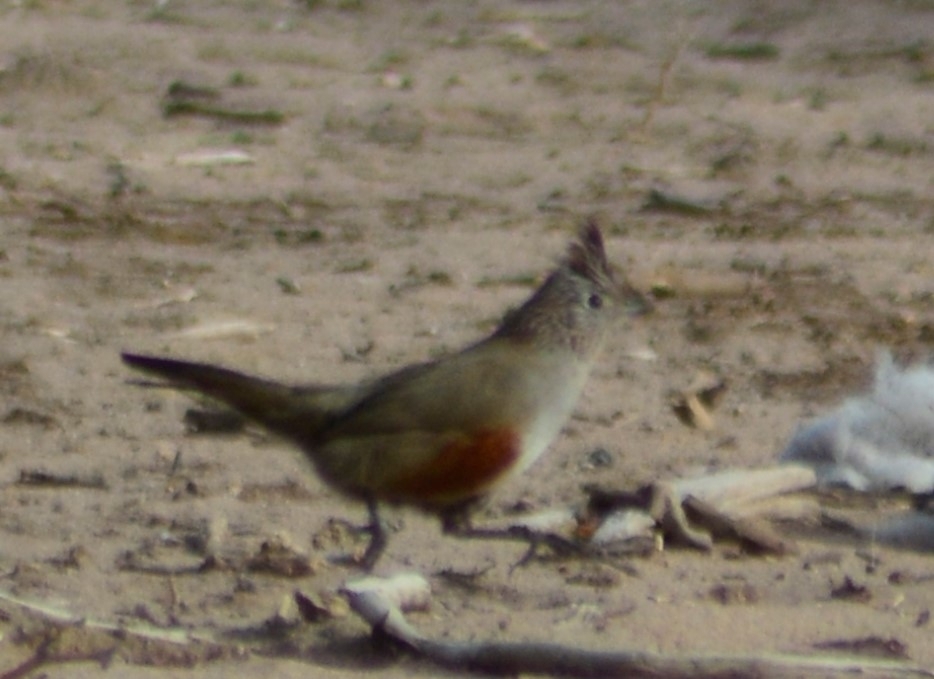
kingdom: Animalia
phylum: Chordata
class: Aves
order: Passeriformes
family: Rhinocryptidae
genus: Rhinocrypta
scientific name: Rhinocrypta lanceolata
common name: Crested gallito
